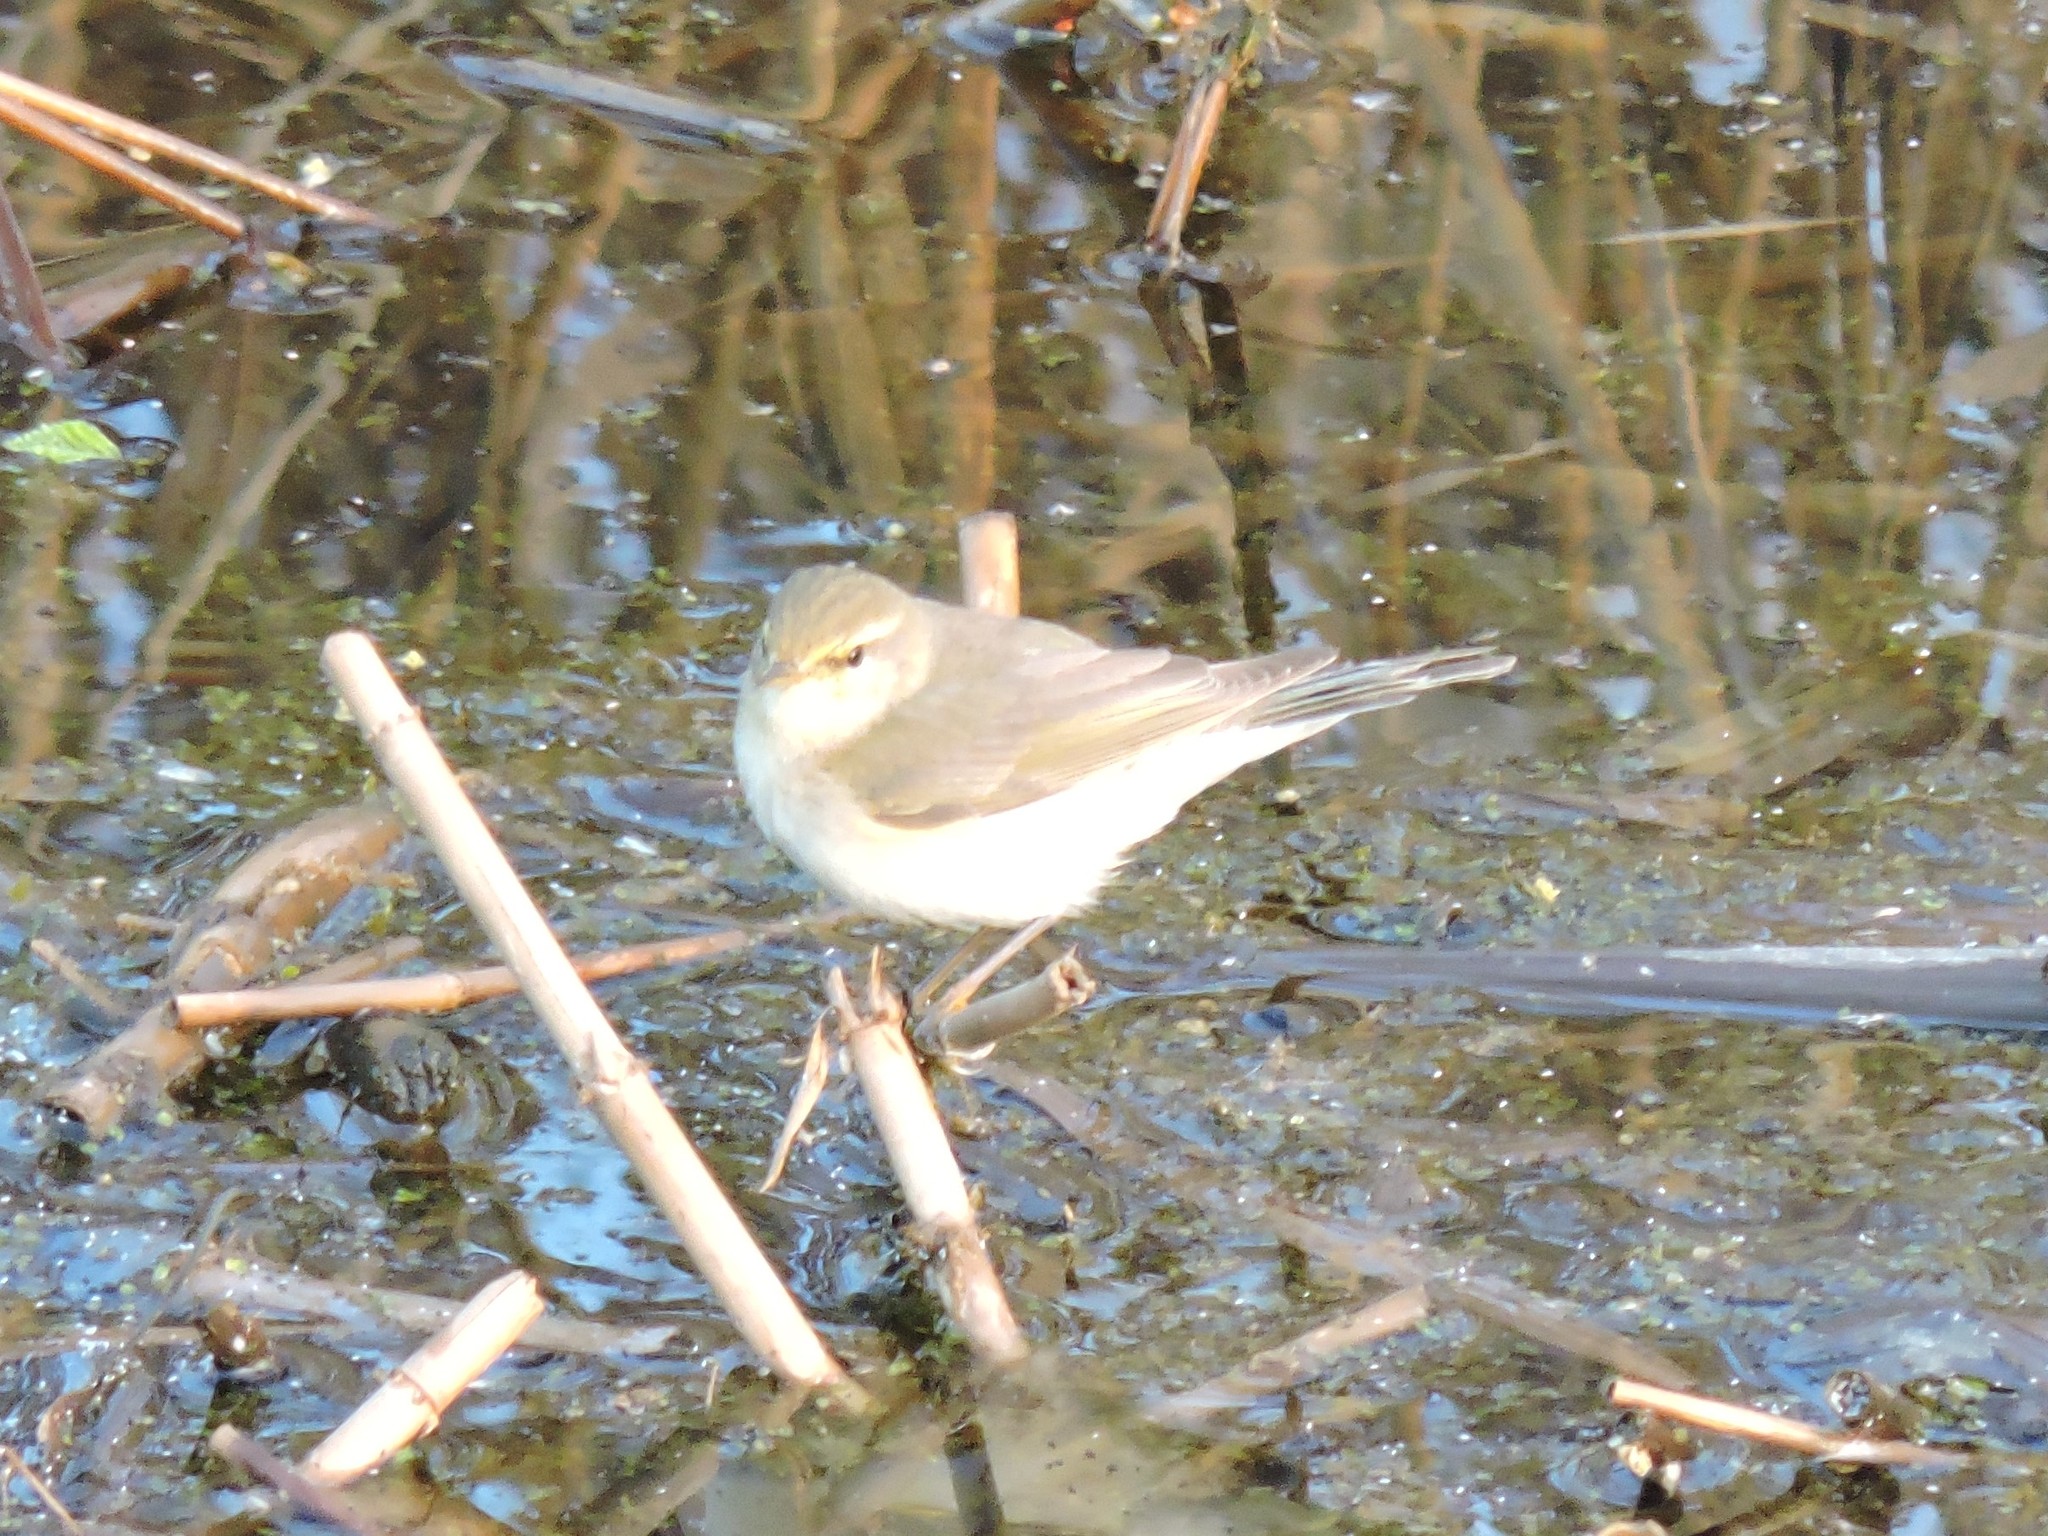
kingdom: Animalia
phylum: Chordata
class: Aves
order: Passeriformes
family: Phylloscopidae
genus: Phylloscopus
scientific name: Phylloscopus trochilus
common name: Willow warbler
